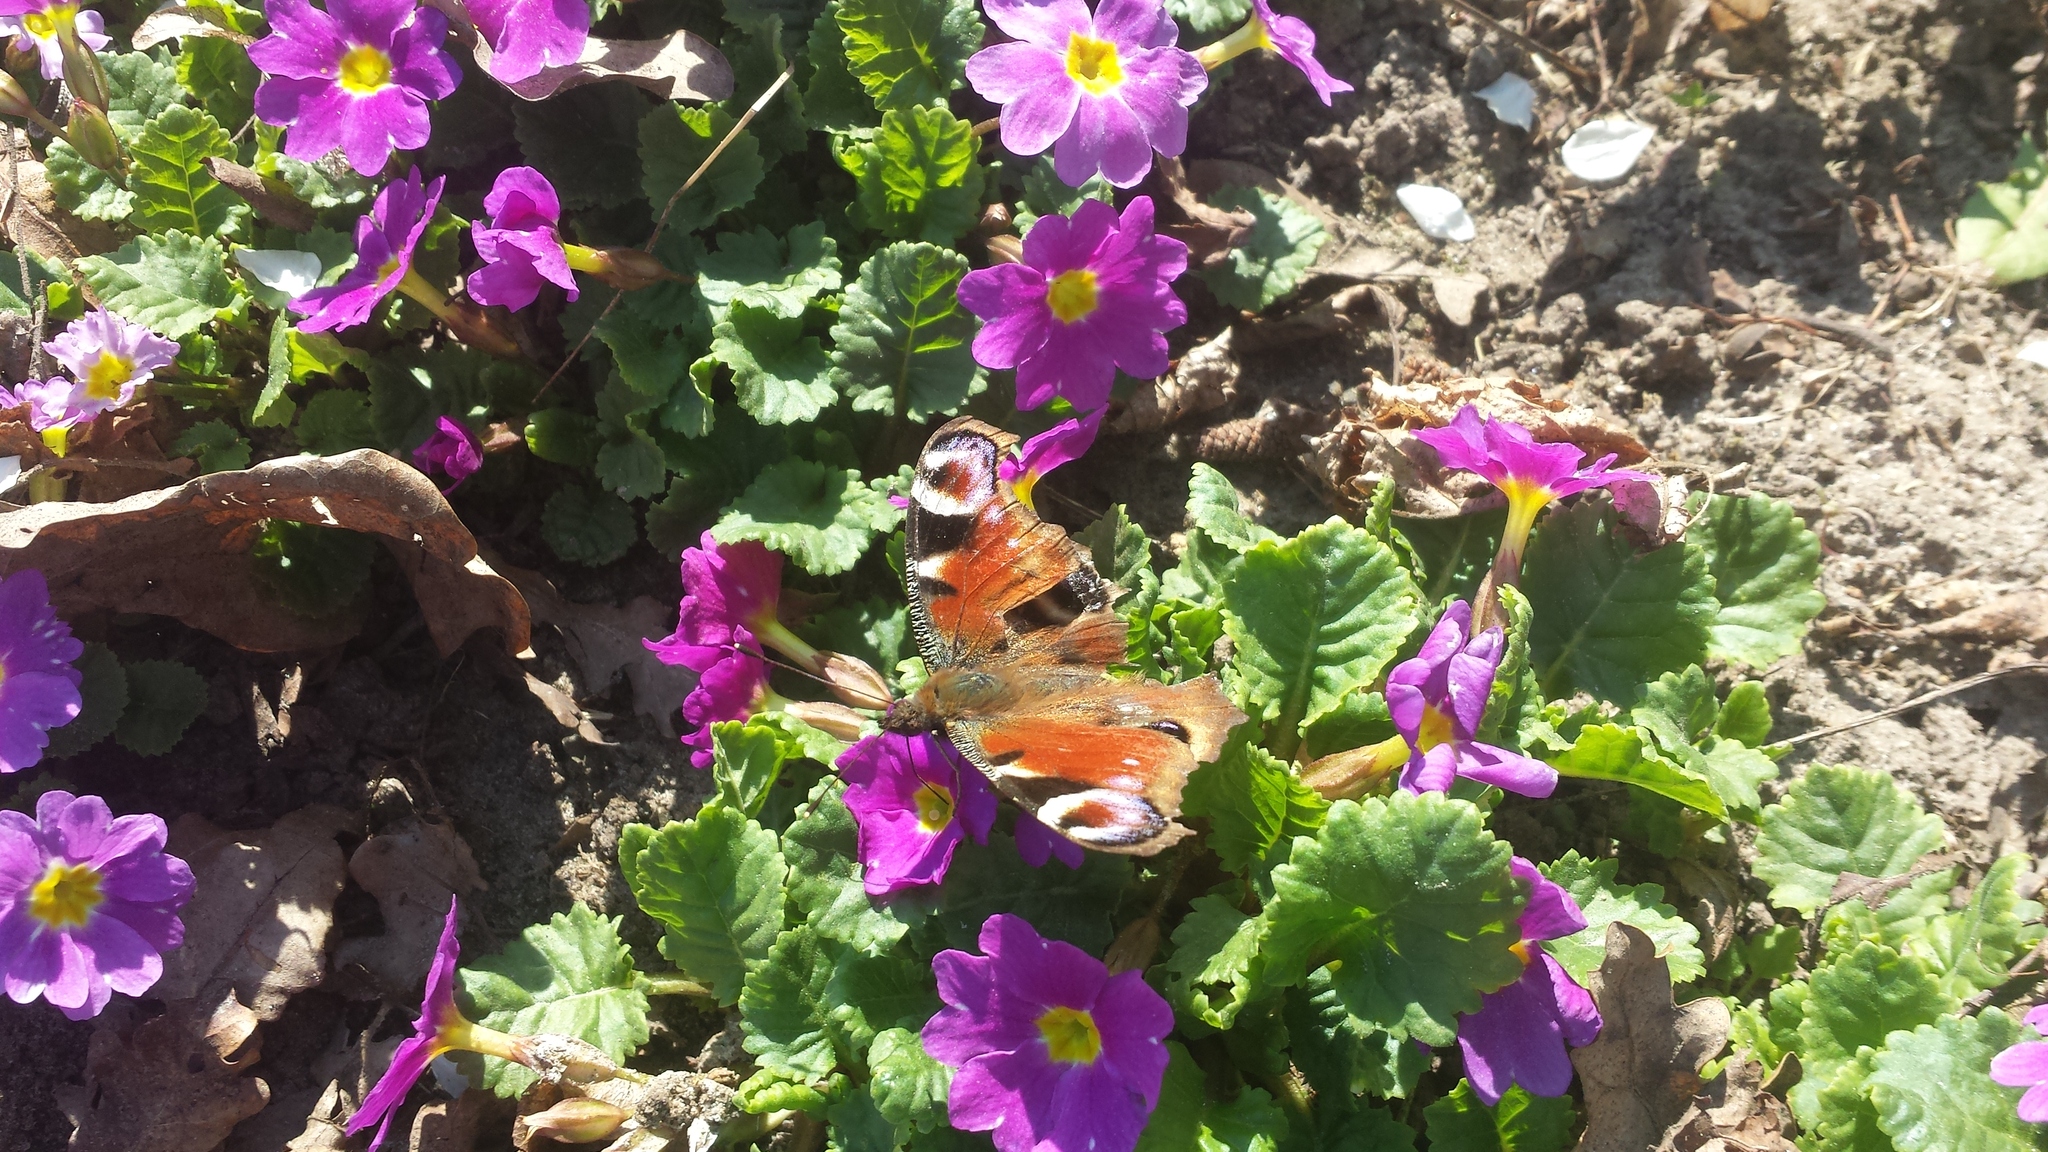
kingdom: Animalia
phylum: Arthropoda
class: Insecta
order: Lepidoptera
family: Nymphalidae
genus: Aglais
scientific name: Aglais io
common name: Peacock
